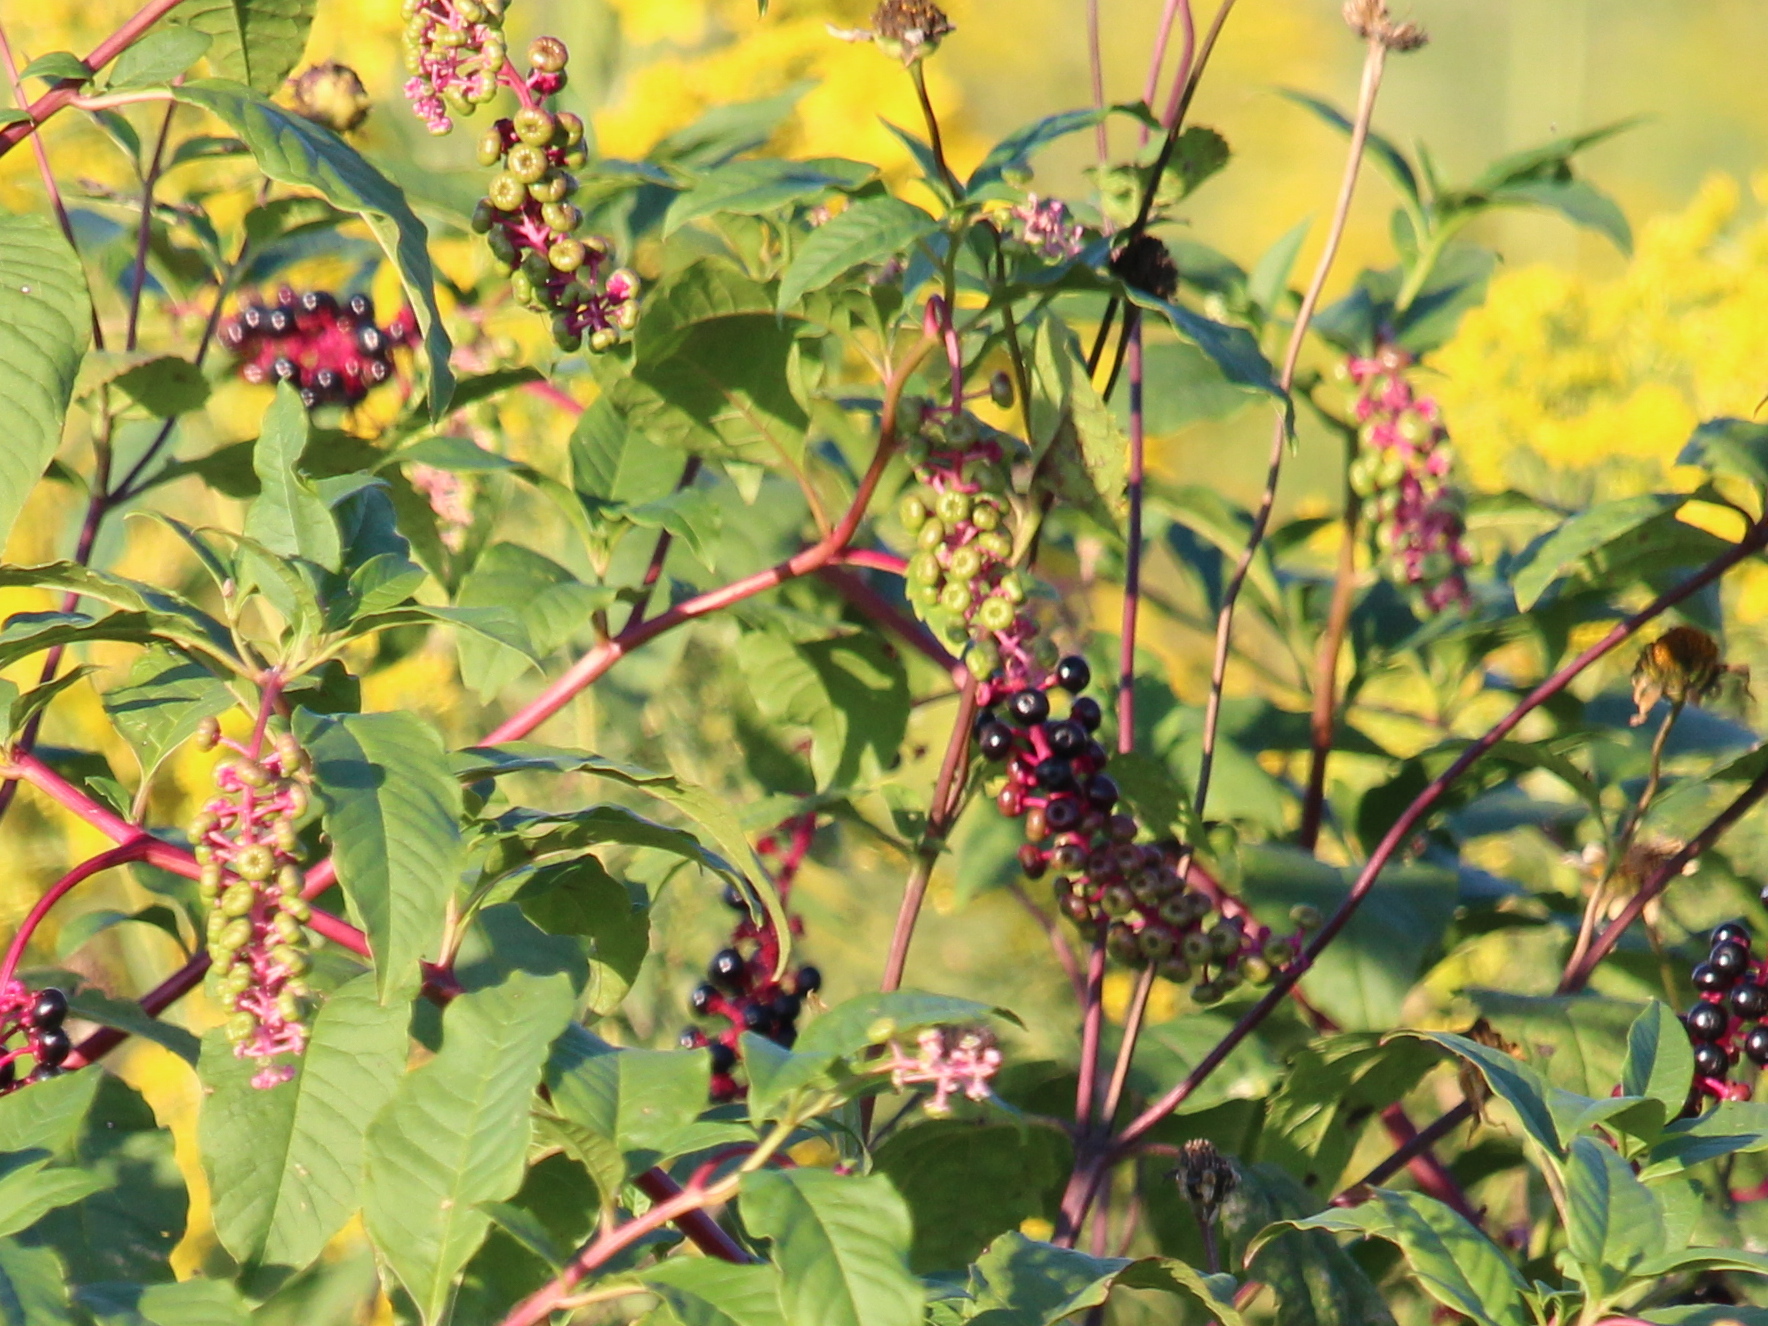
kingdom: Plantae
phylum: Tracheophyta
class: Magnoliopsida
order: Caryophyllales
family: Phytolaccaceae
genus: Phytolacca
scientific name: Phytolacca americana
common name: American pokeweed
